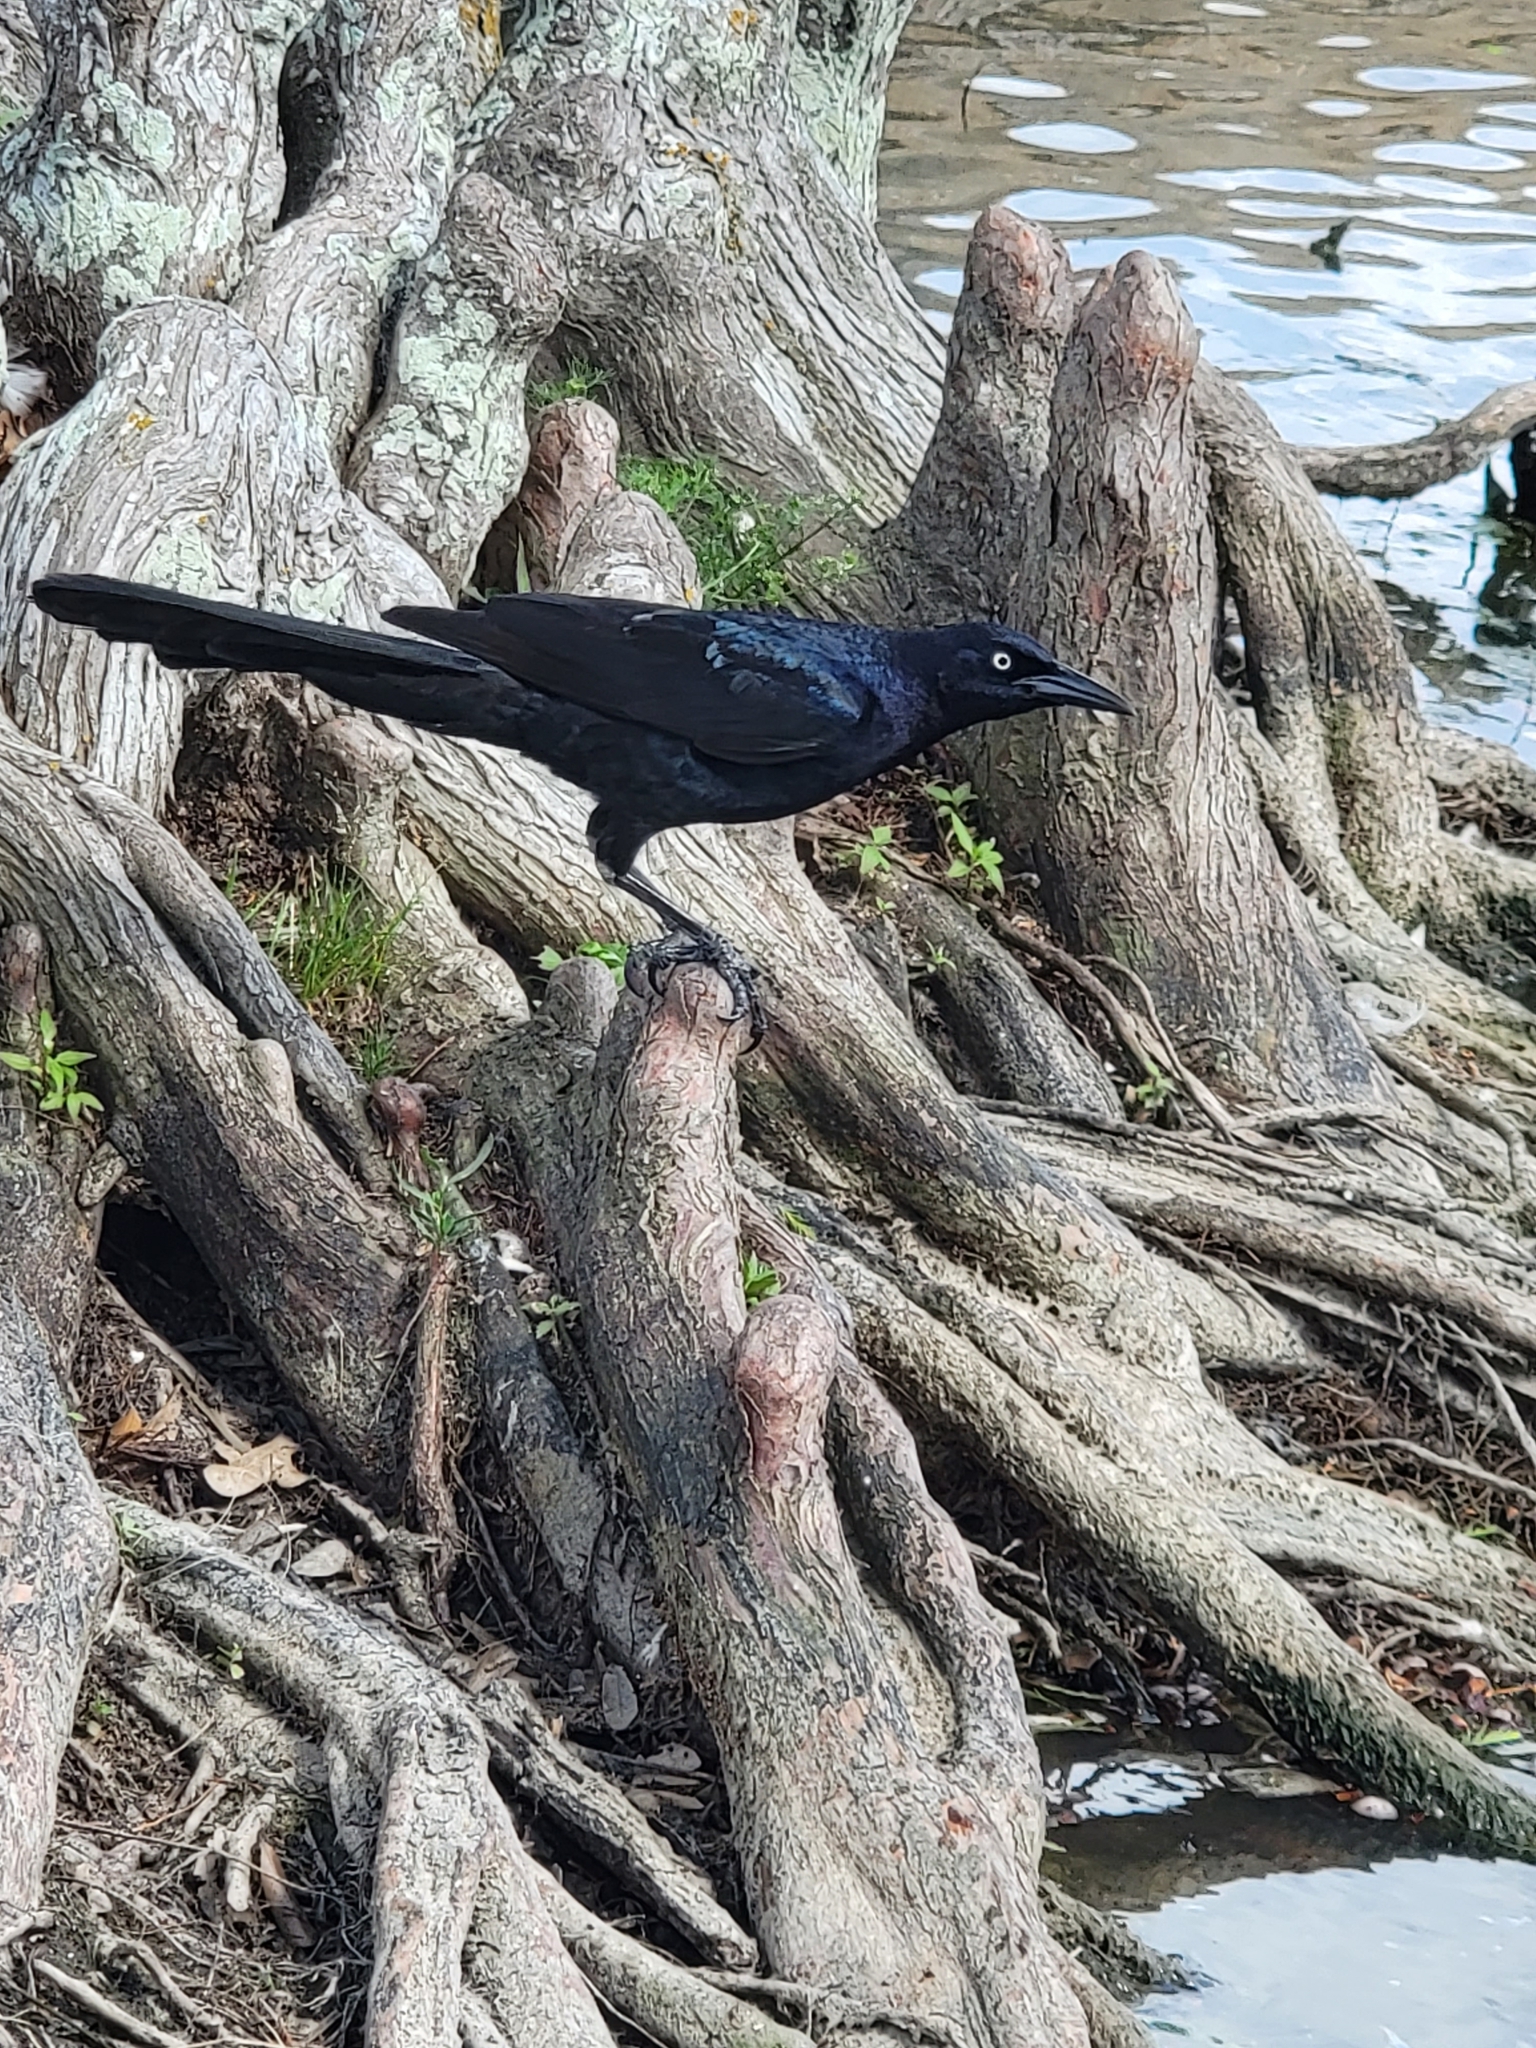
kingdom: Animalia
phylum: Chordata
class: Aves
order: Passeriformes
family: Icteridae
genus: Quiscalus
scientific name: Quiscalus mexicanus
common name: Great-tailed grackle
